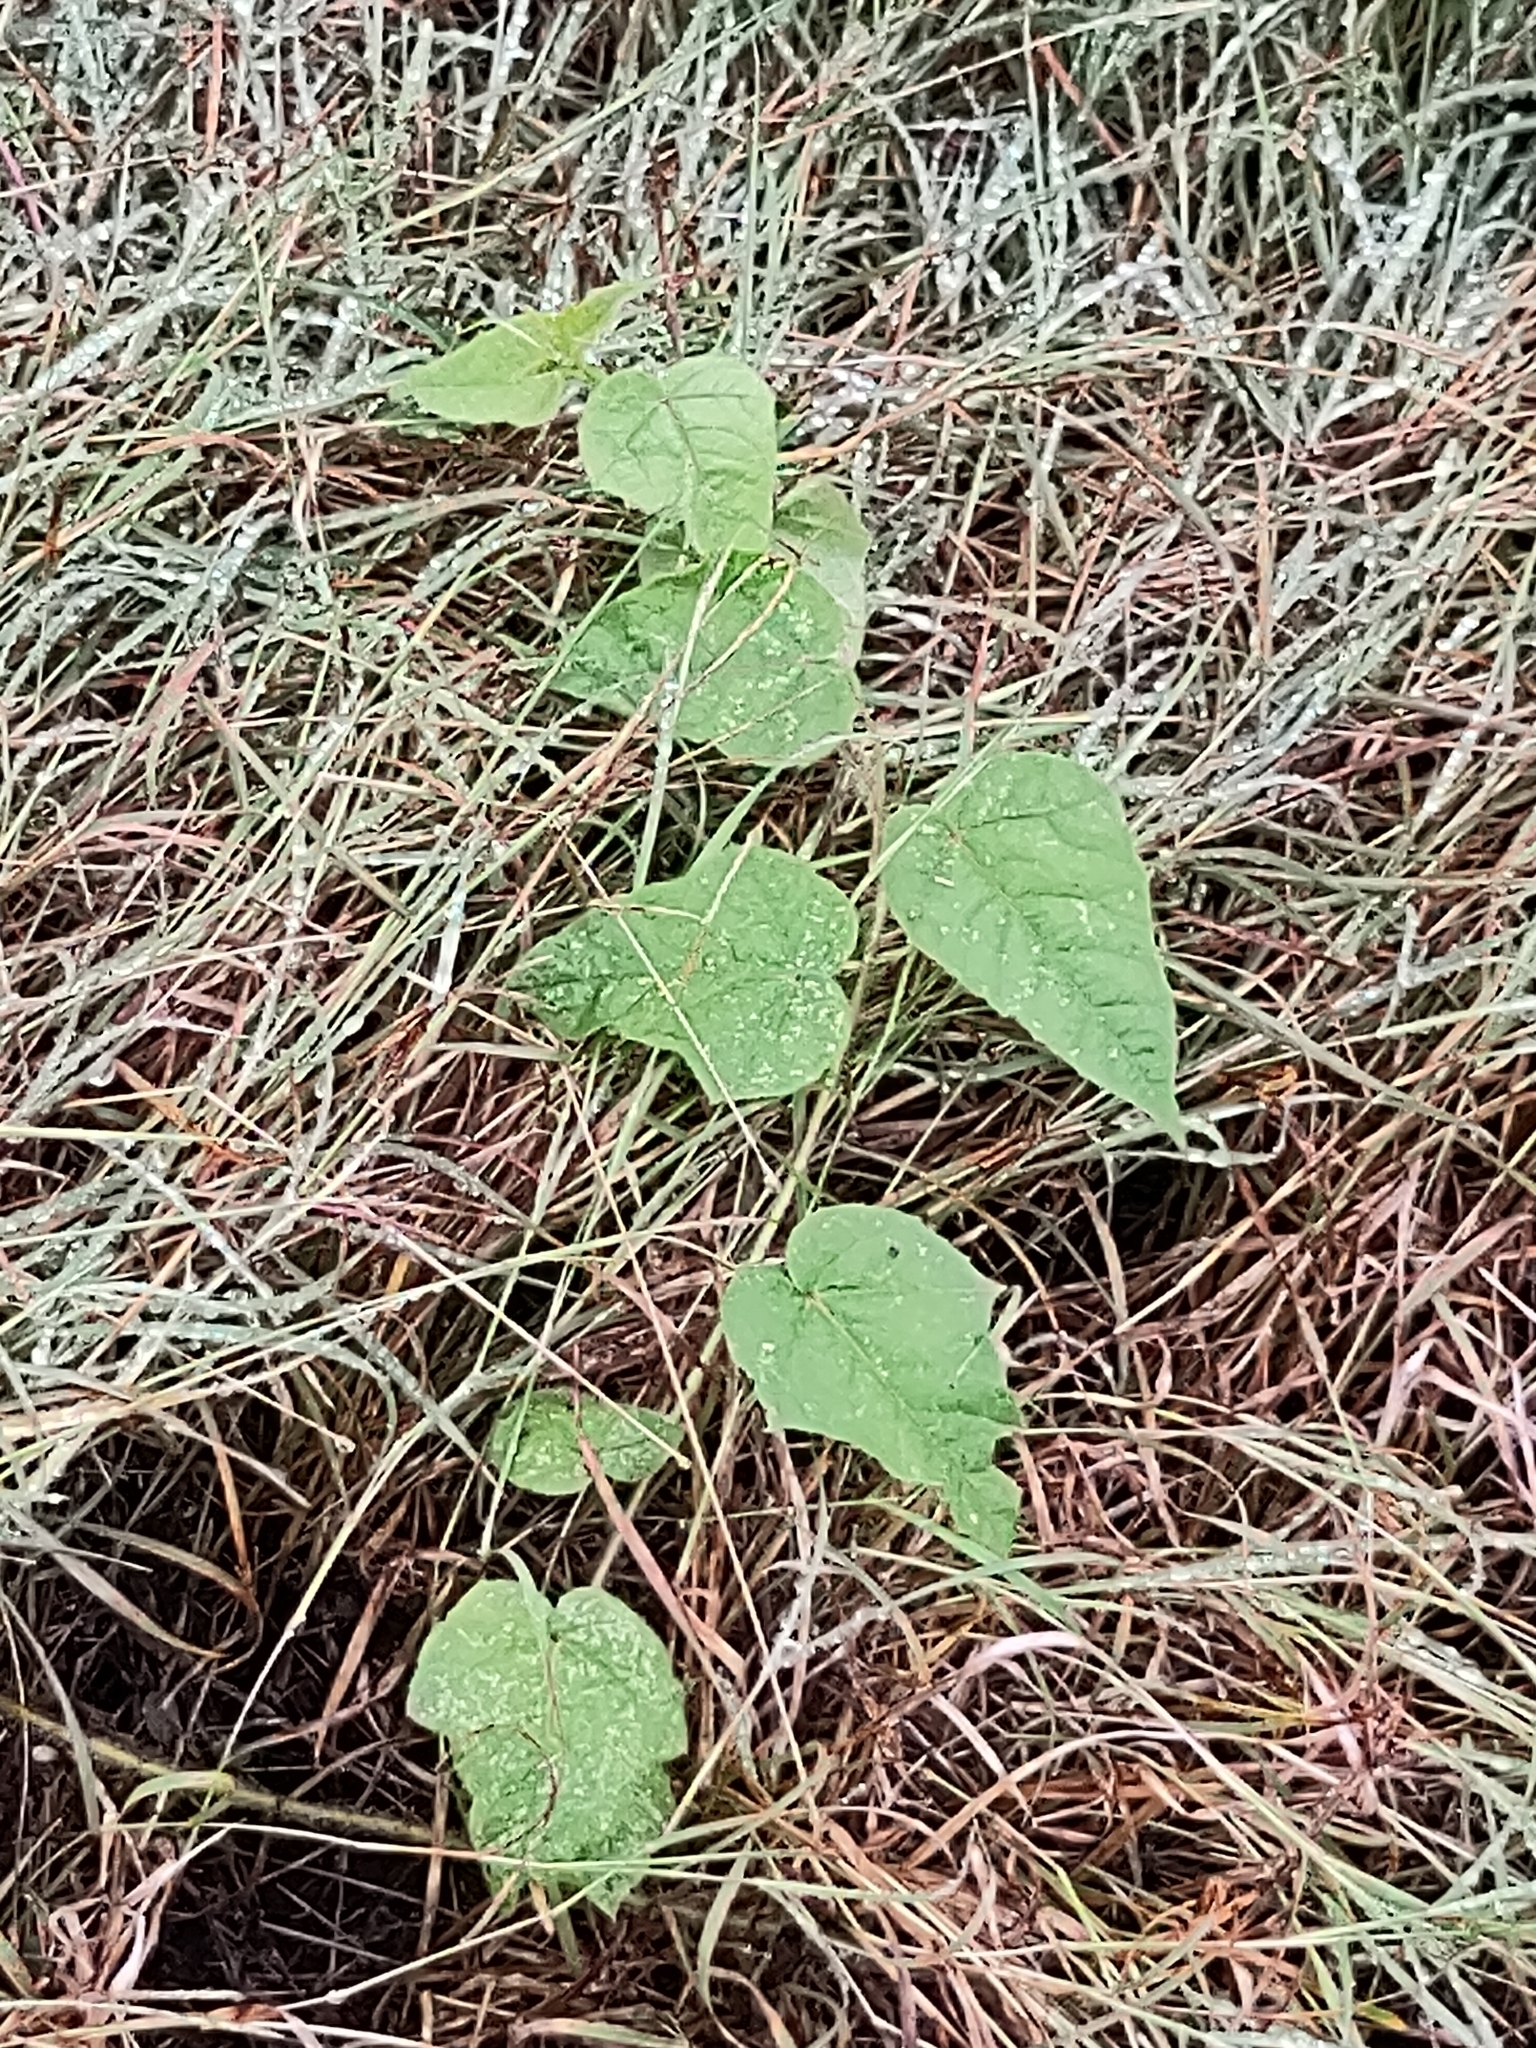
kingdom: Plantae
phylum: Tracheophyta
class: Magnoliopsida
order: Malpighiales
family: Passifloraceae
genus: Passiflora
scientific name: Passiflora foetida
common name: Fetid passionflower
